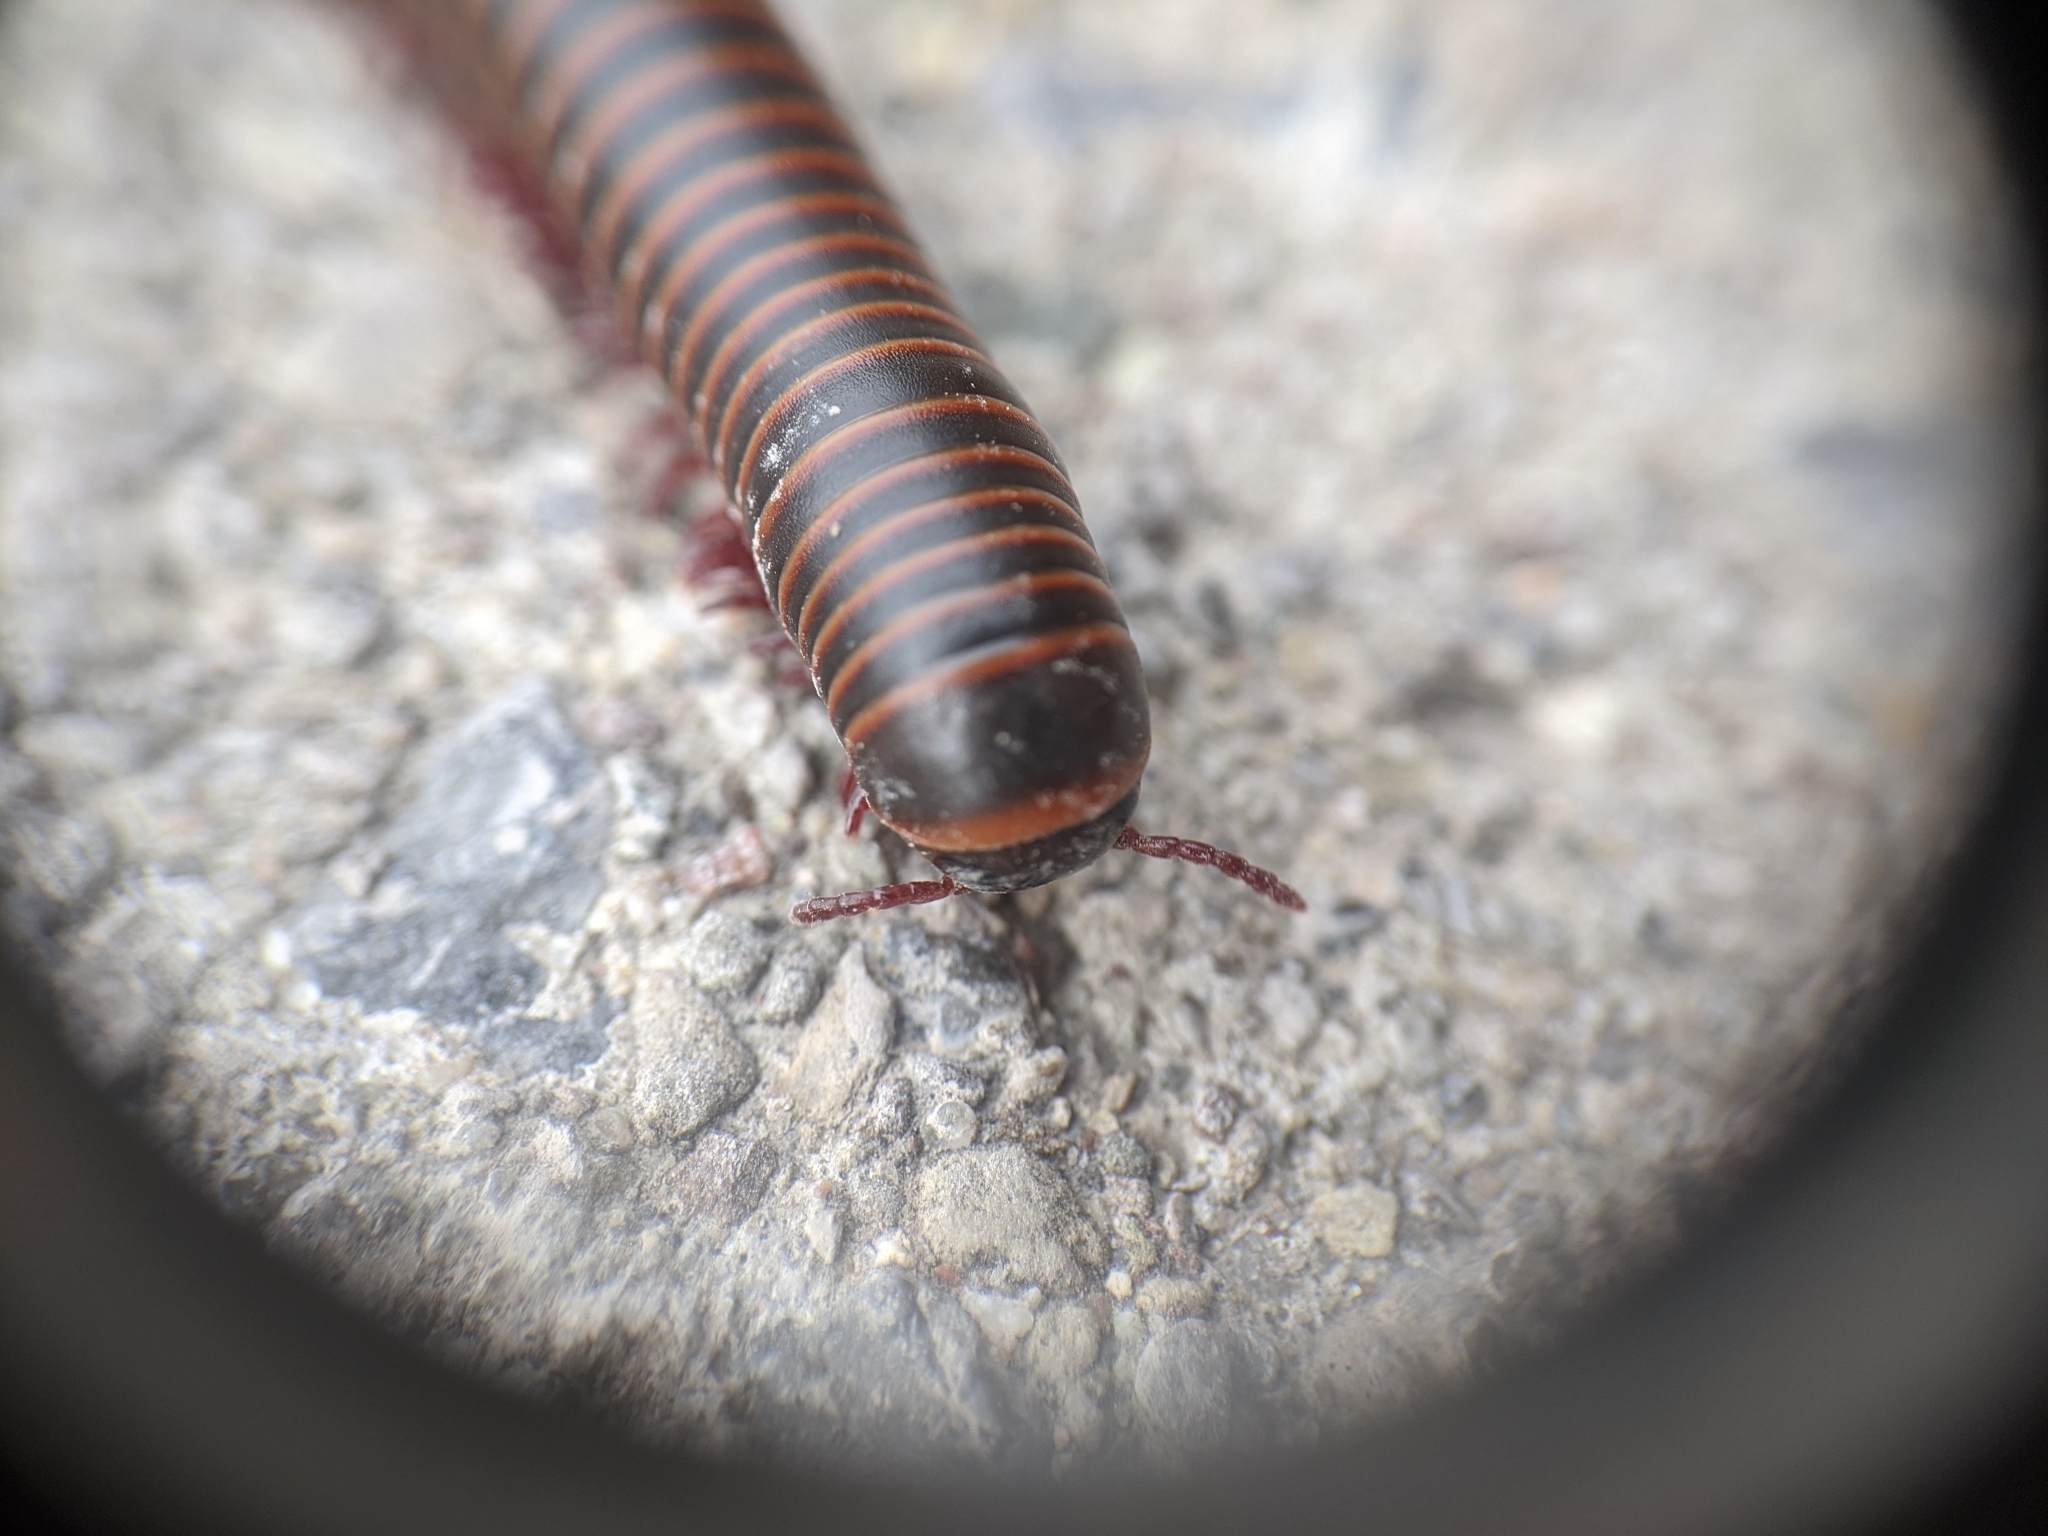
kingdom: Animalia
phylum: Arthropoda
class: Diplopoda
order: Spirobolida
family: Spirobolidae
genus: Narceus
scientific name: Narceus
